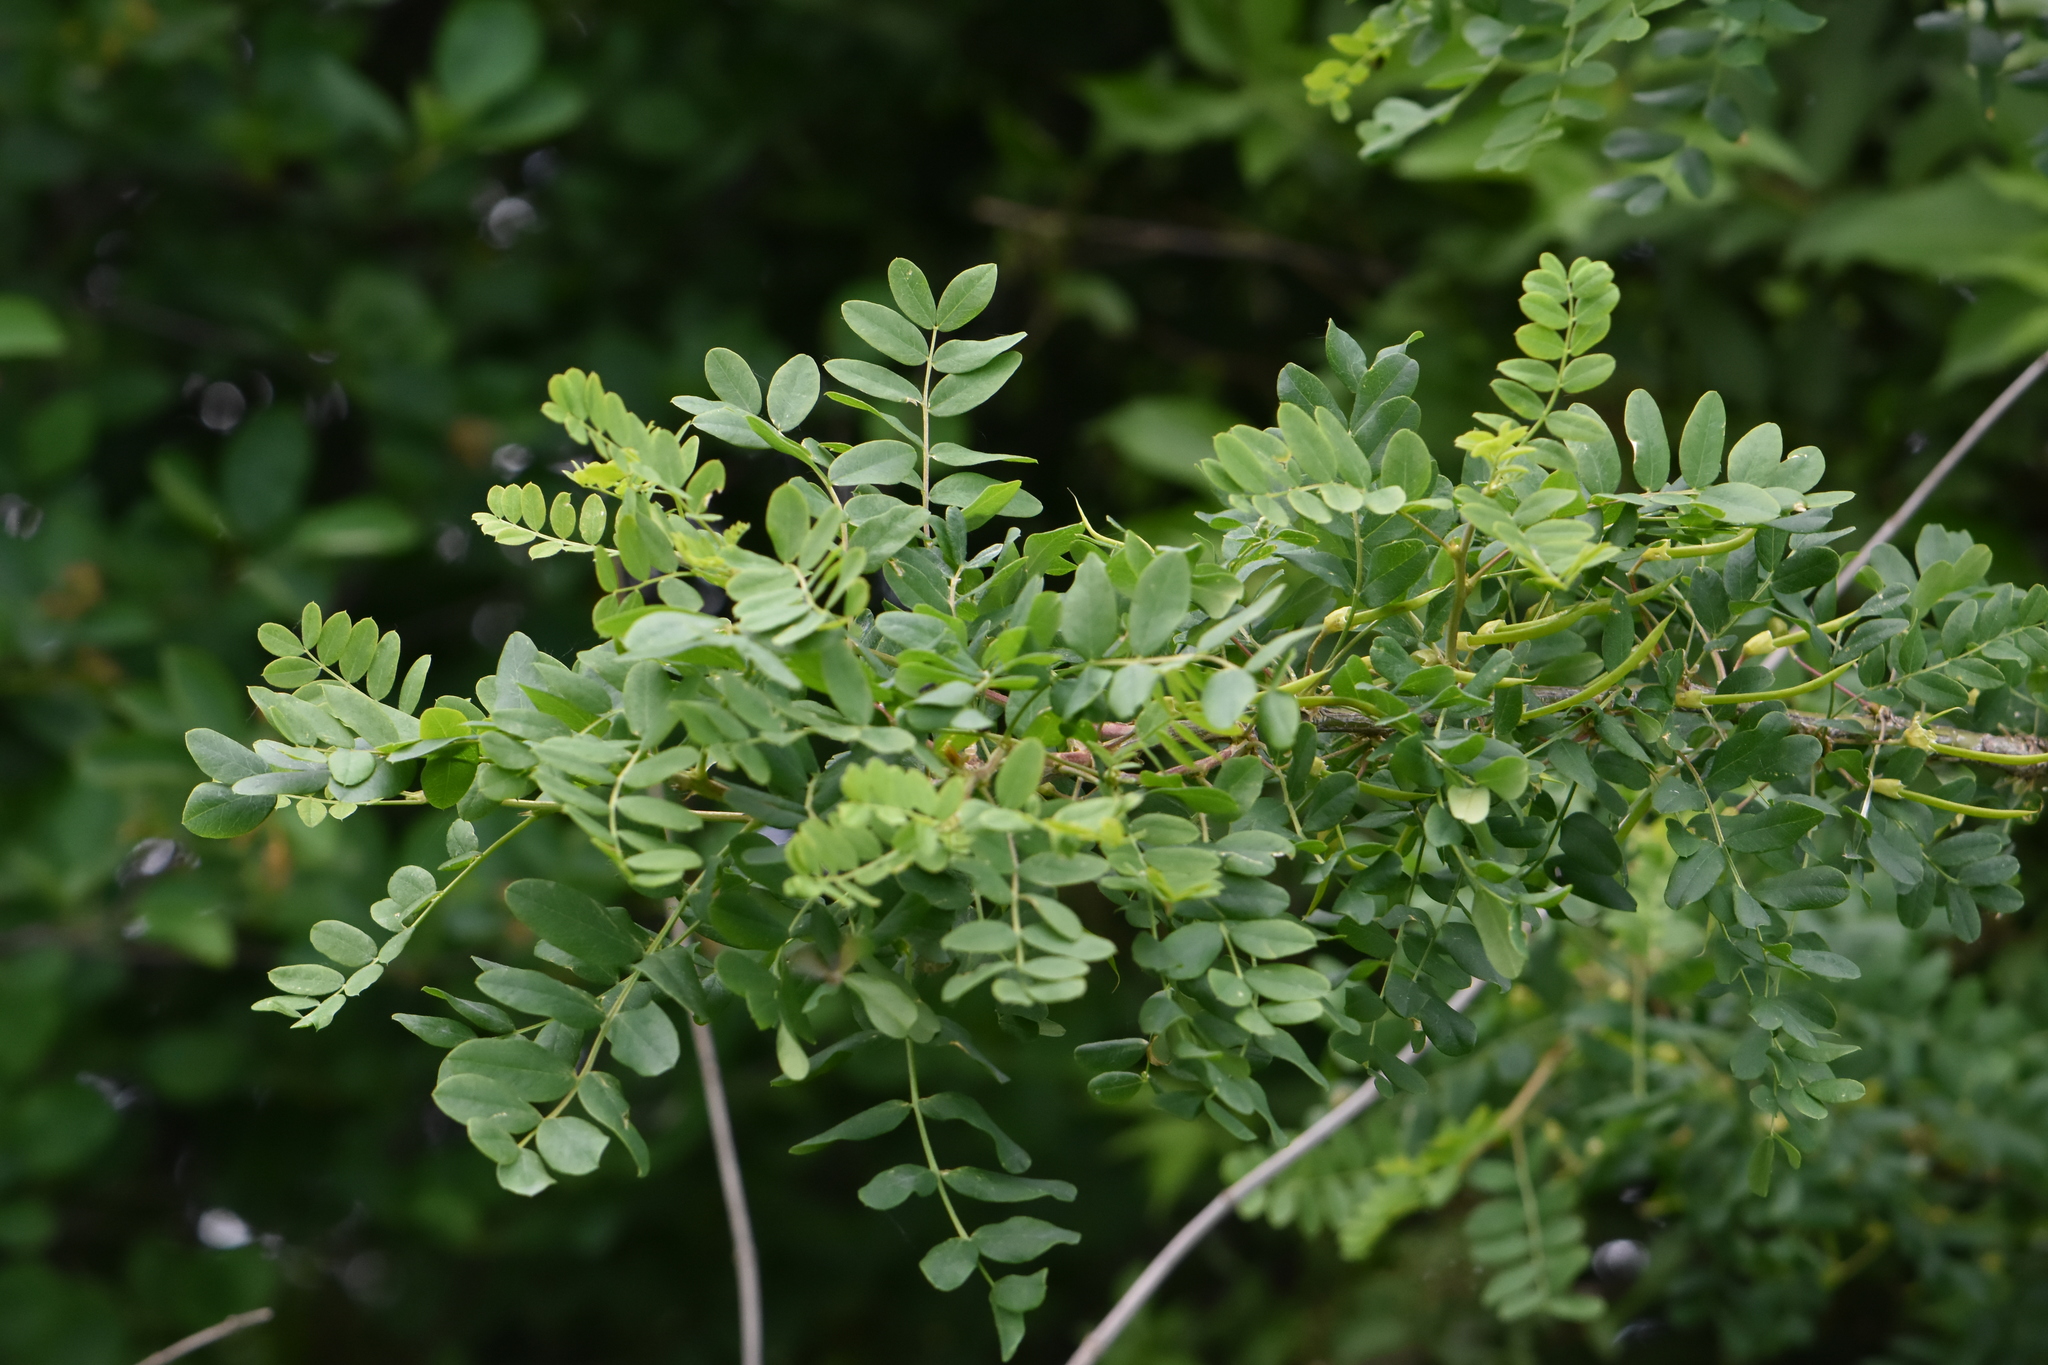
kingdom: Plantae
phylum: Tracheophyta
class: Magnoliopsida
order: Fabales
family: Fabaceae
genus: Caragana
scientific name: Caragana arborescens
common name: Siberian peashrub
